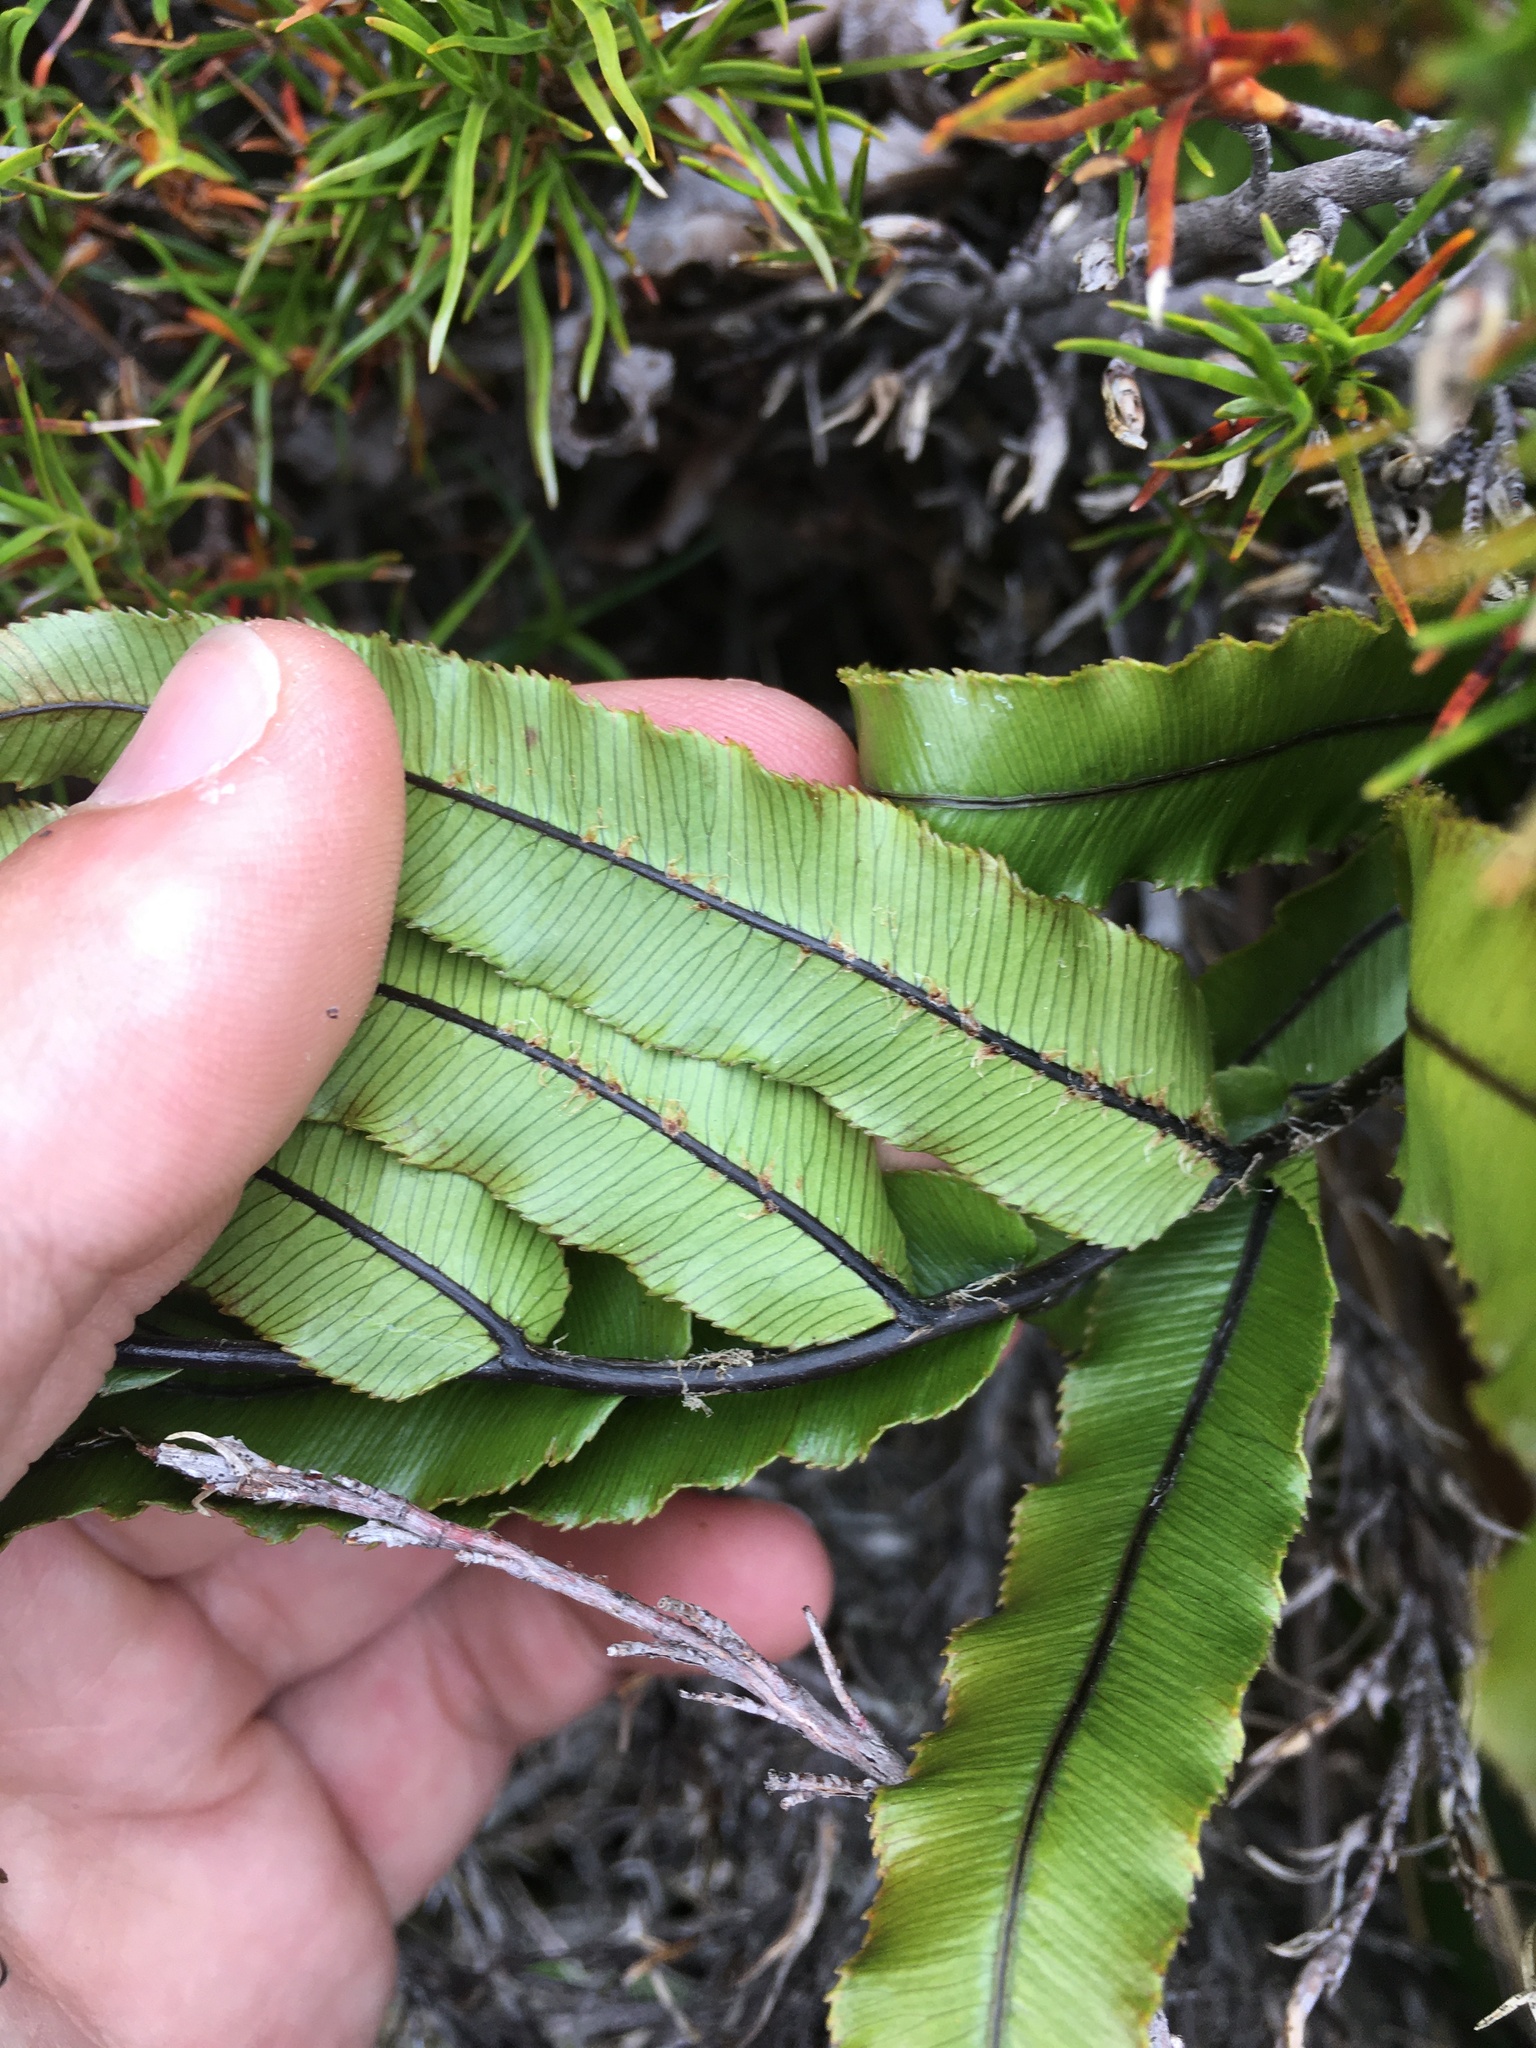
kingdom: Plantae
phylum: Tracheophyta
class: Polypodiopsida
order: Polypodiales
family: Blechnaceae
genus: Parablechnum
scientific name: Parablechnum montanum
